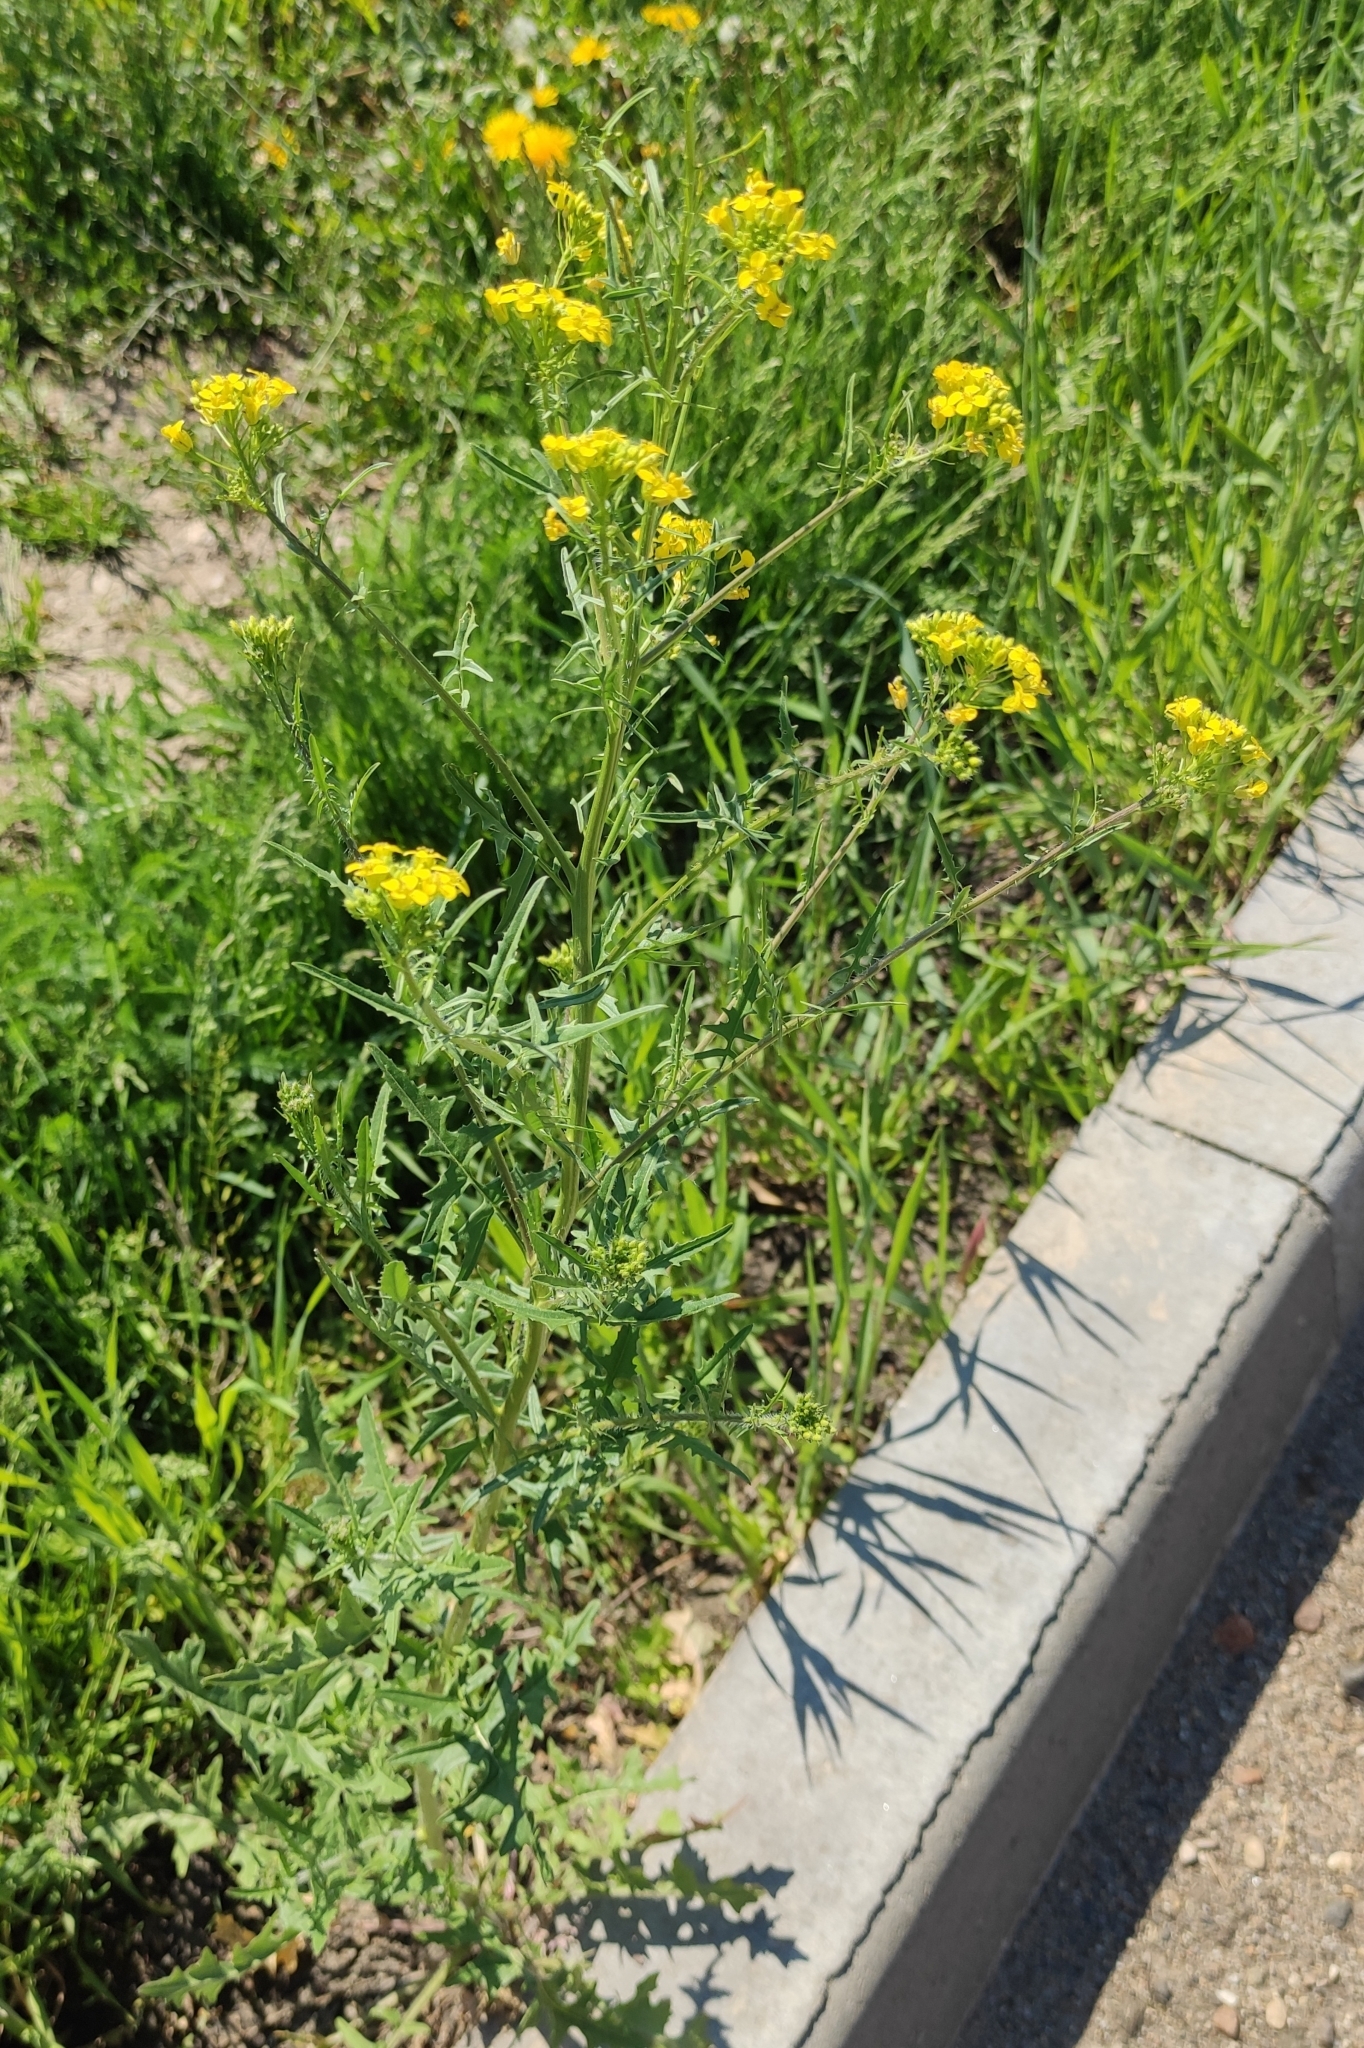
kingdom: Plantae
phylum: Tracheophyta
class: Magnoliopsida
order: Brassicales
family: Brassicaceae
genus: Sisymbrium
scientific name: Sisymbrium loeselii
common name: False london-rocket
